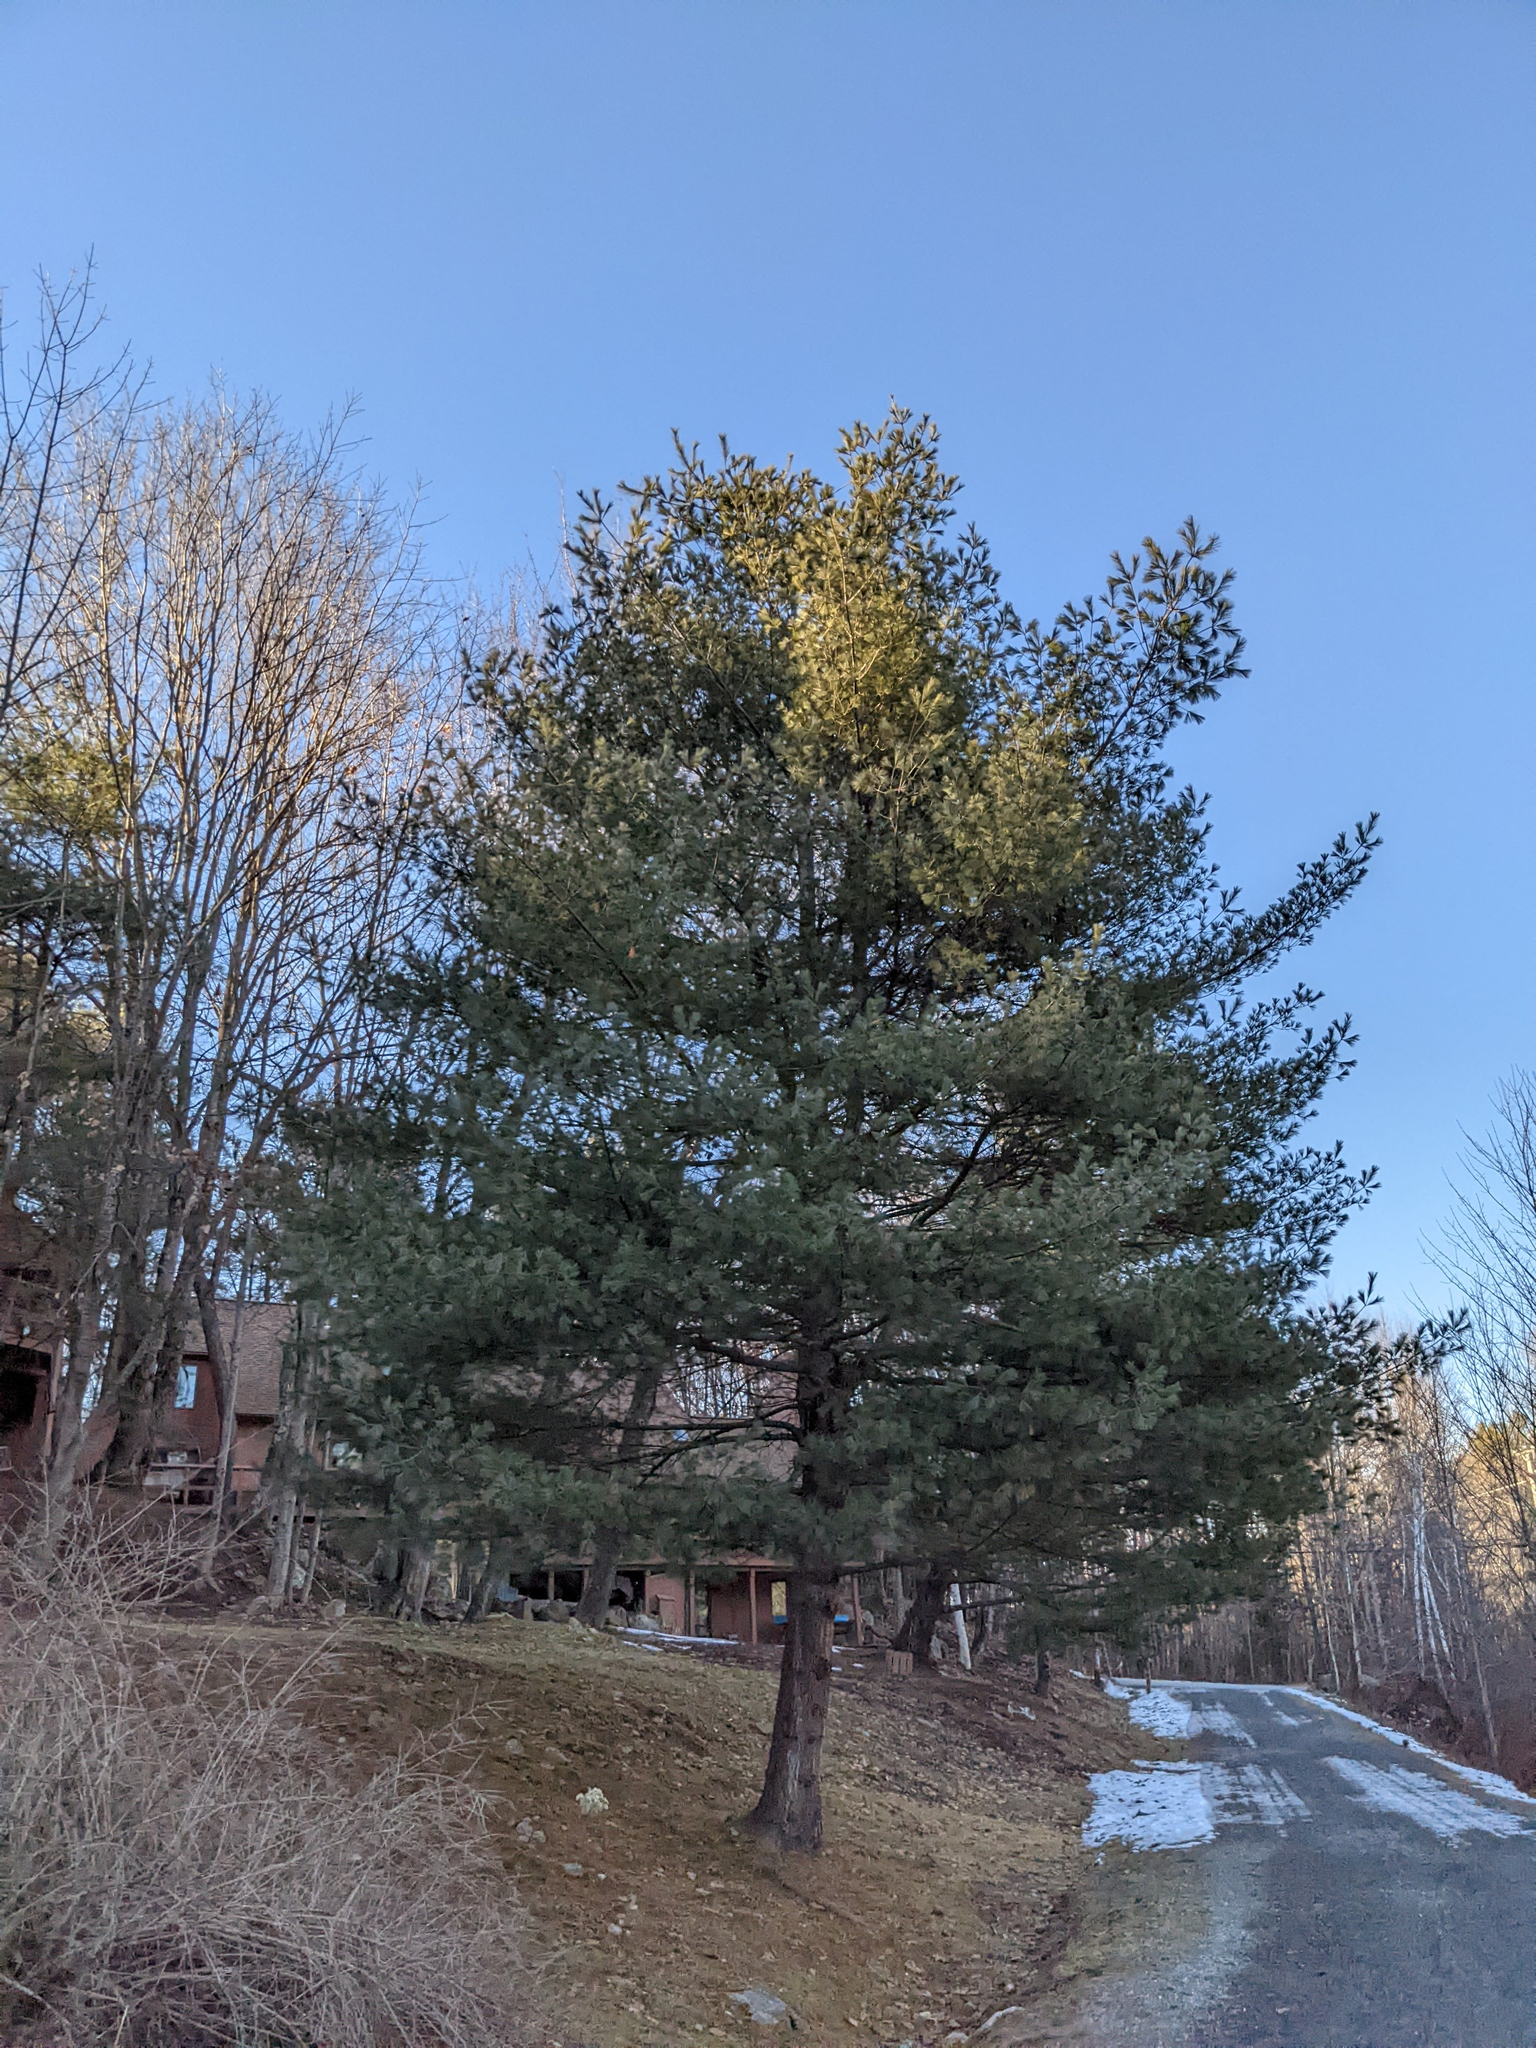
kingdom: Plantae
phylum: Tracheophyta
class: Pinopsida
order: Pinales
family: Pinaceae
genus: Pinus
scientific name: Pinus strobus
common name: Weymouth pine
